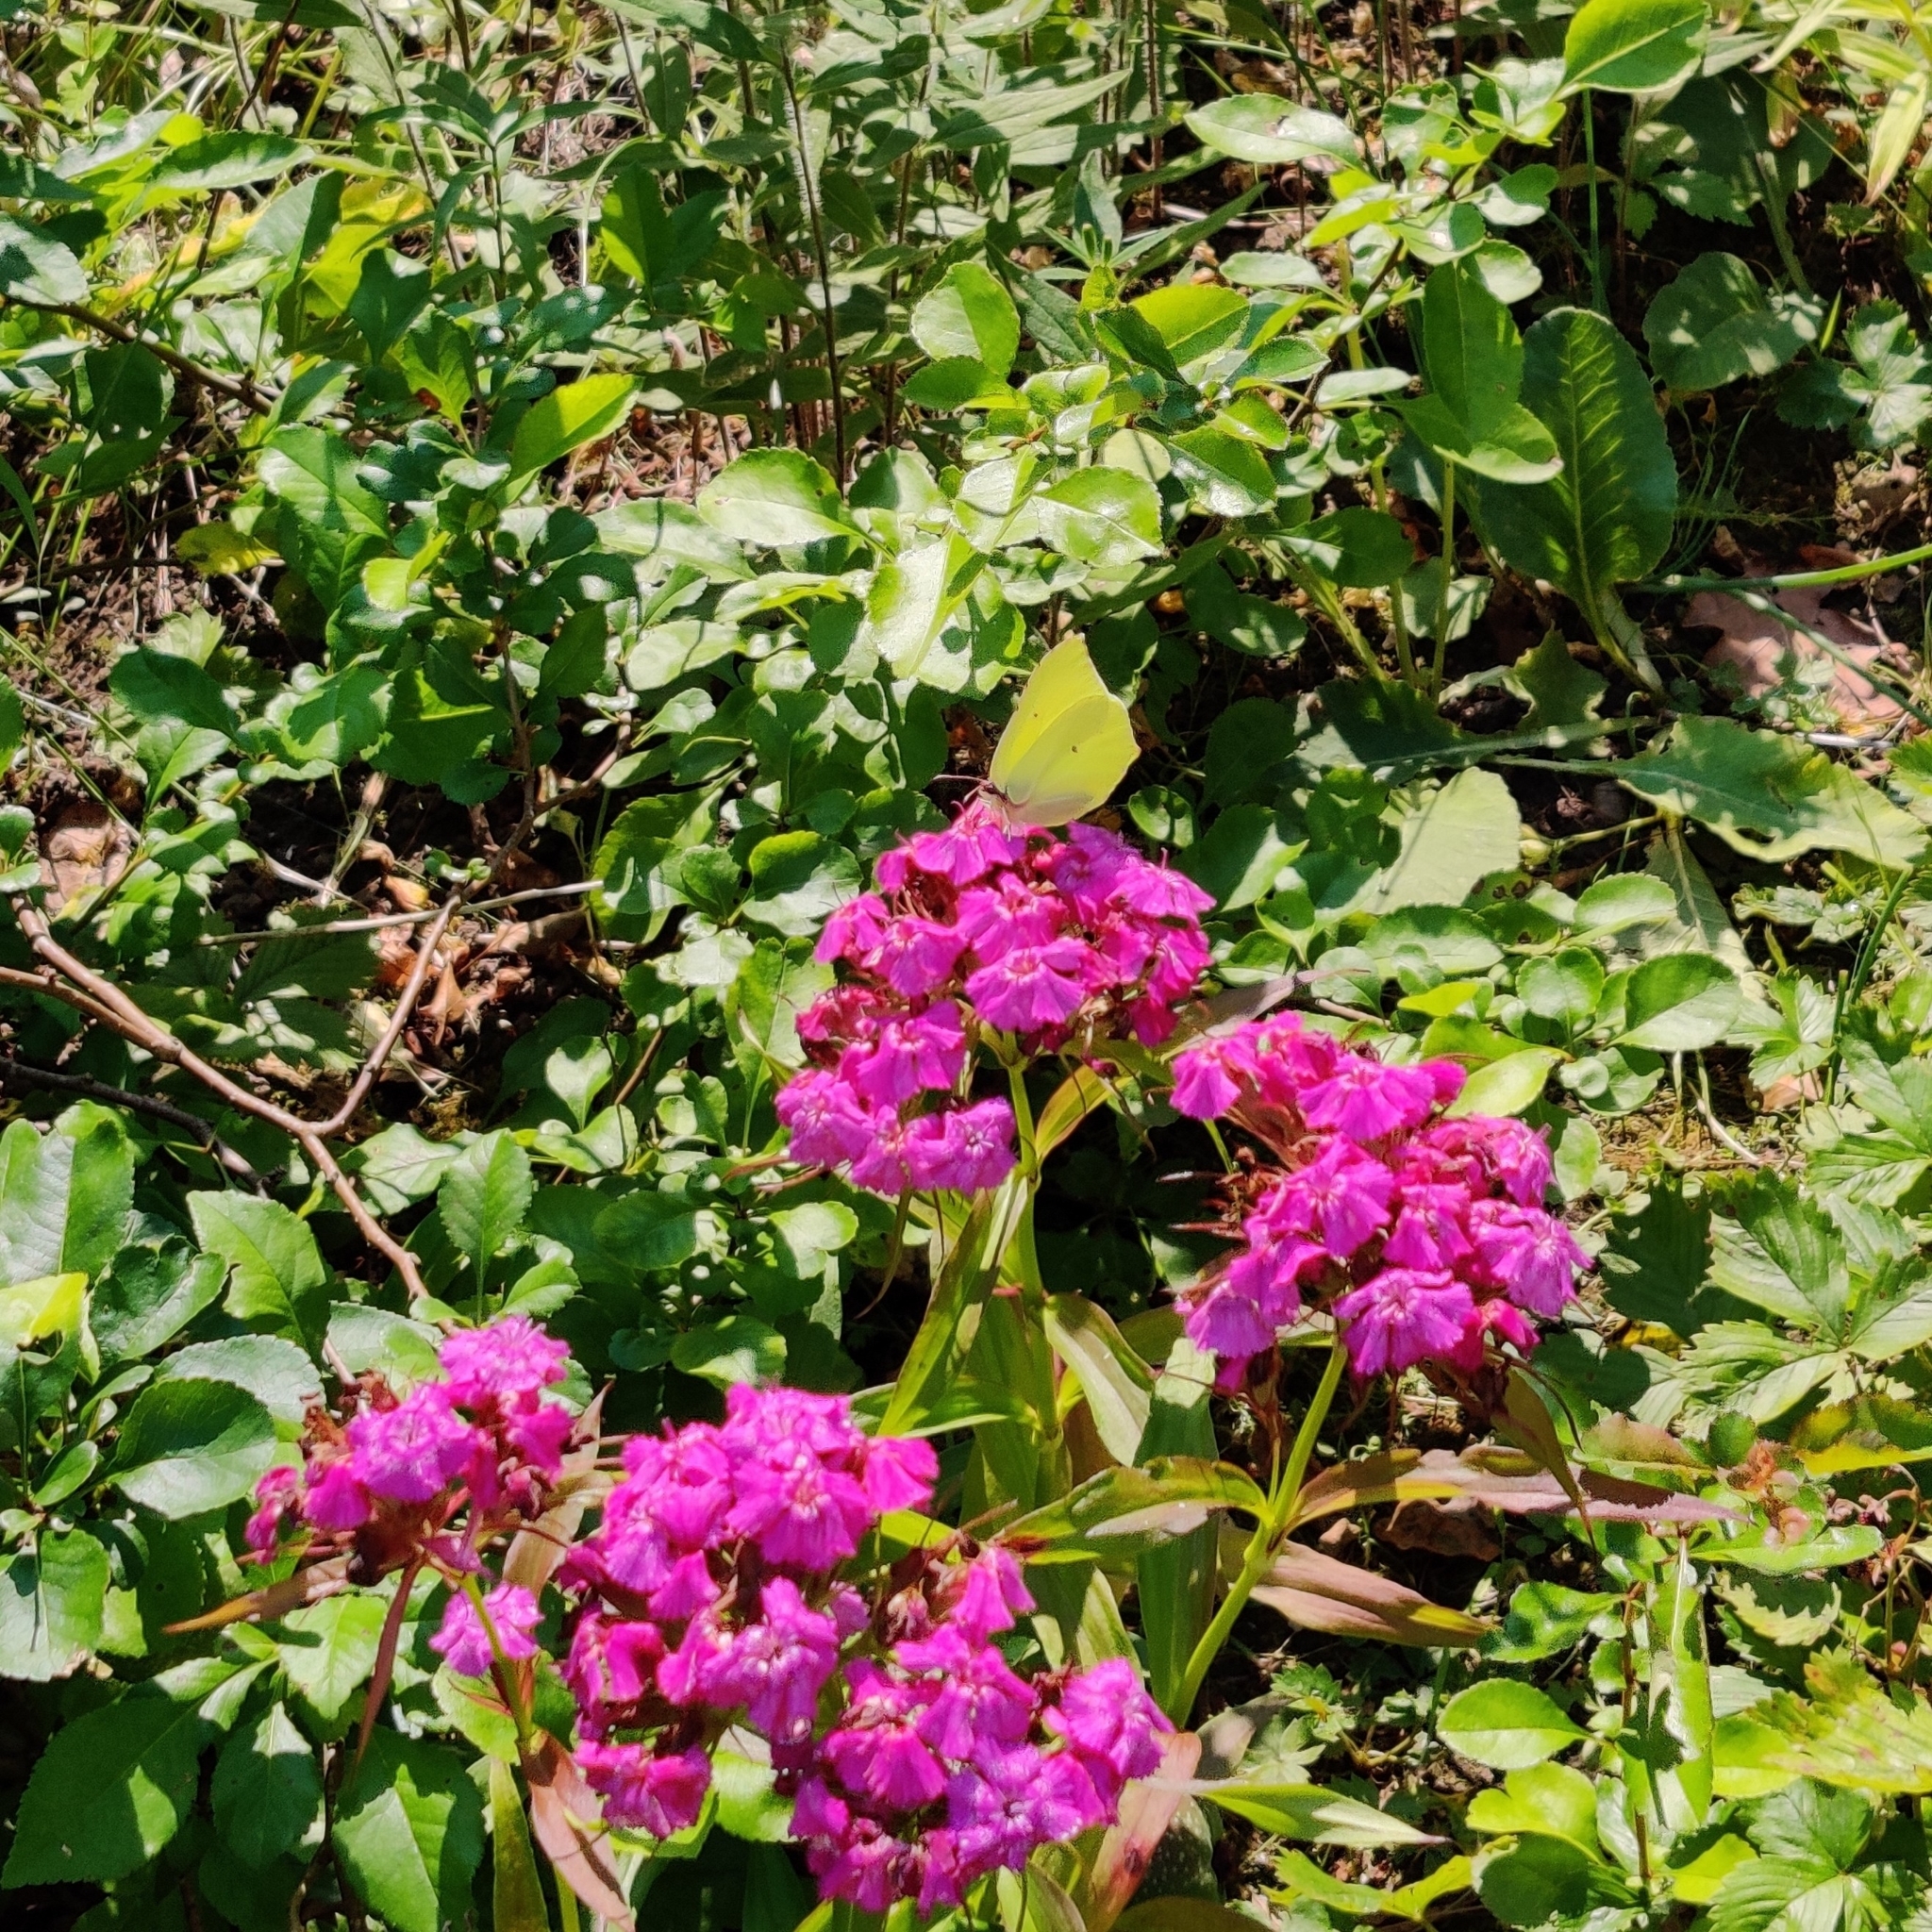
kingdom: Animalia
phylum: Arthropoda
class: Insecta
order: Lepidoptera
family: Pieridae
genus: Gonepteryx
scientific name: Gonepteryx rhamni
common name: Brimstone
